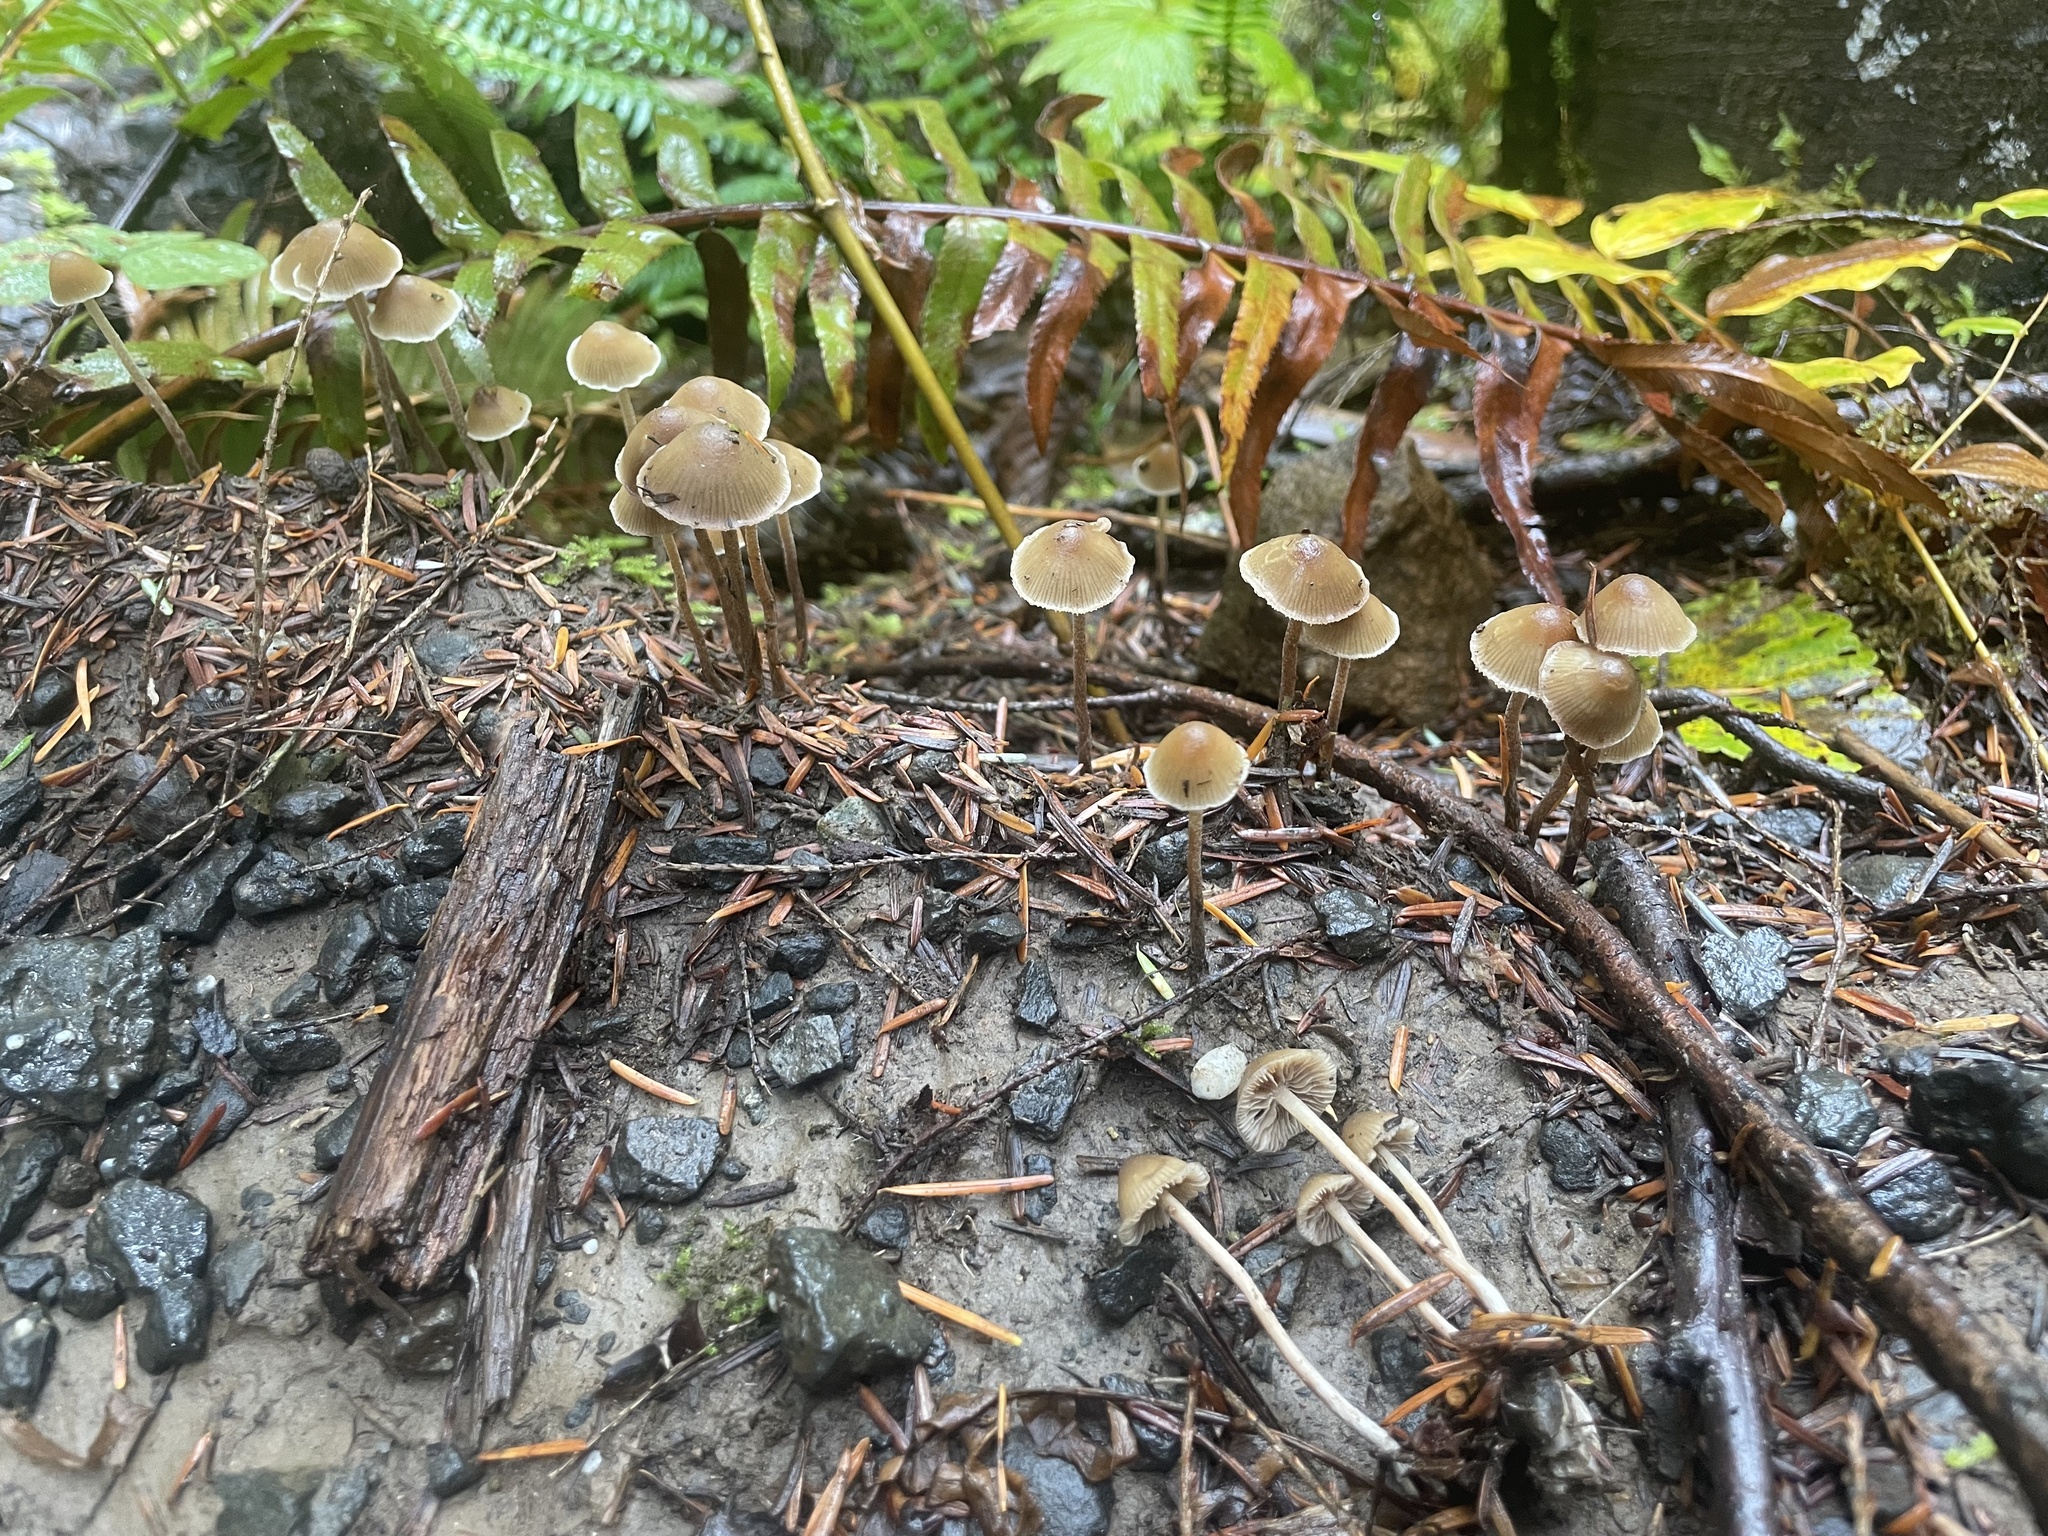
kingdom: Fungi
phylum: Basidiomycota
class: Agaricomycetes
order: Agaricales
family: Hymenogastraceae
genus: Psilocybe
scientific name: Psilocybe pelliculosa
